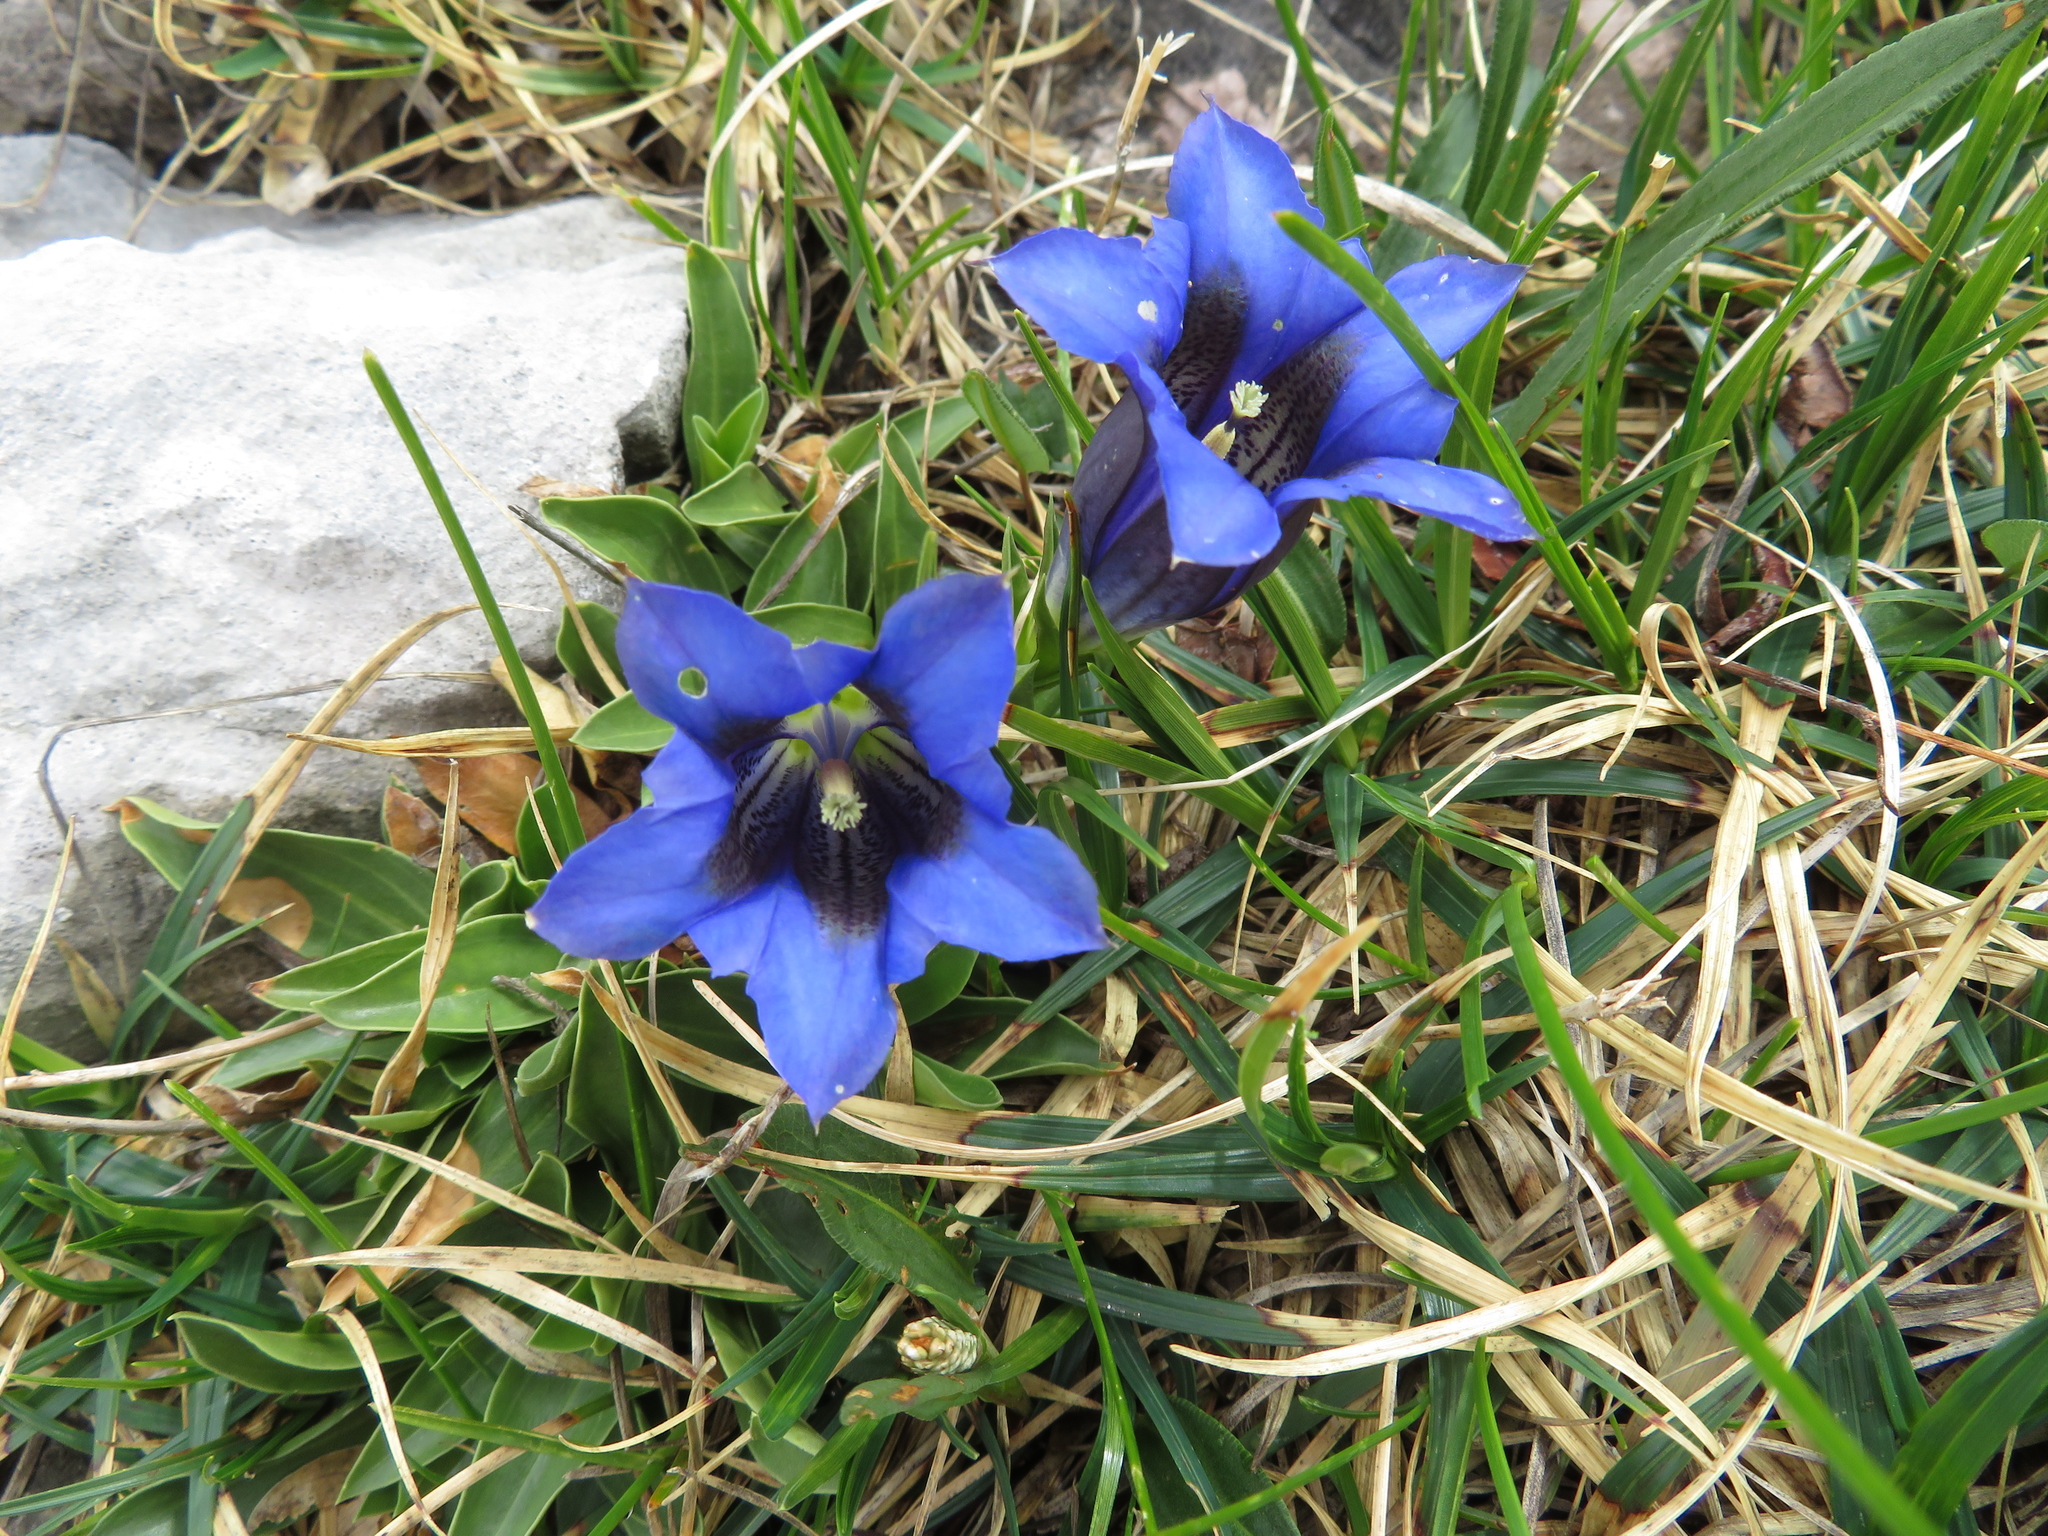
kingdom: Plantae
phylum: Tracheophyta
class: Magnoliopsida
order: Gentianales
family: Gentianaceae
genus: Gentiana
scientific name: Gentiana clusii
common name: Trumpet gentian
